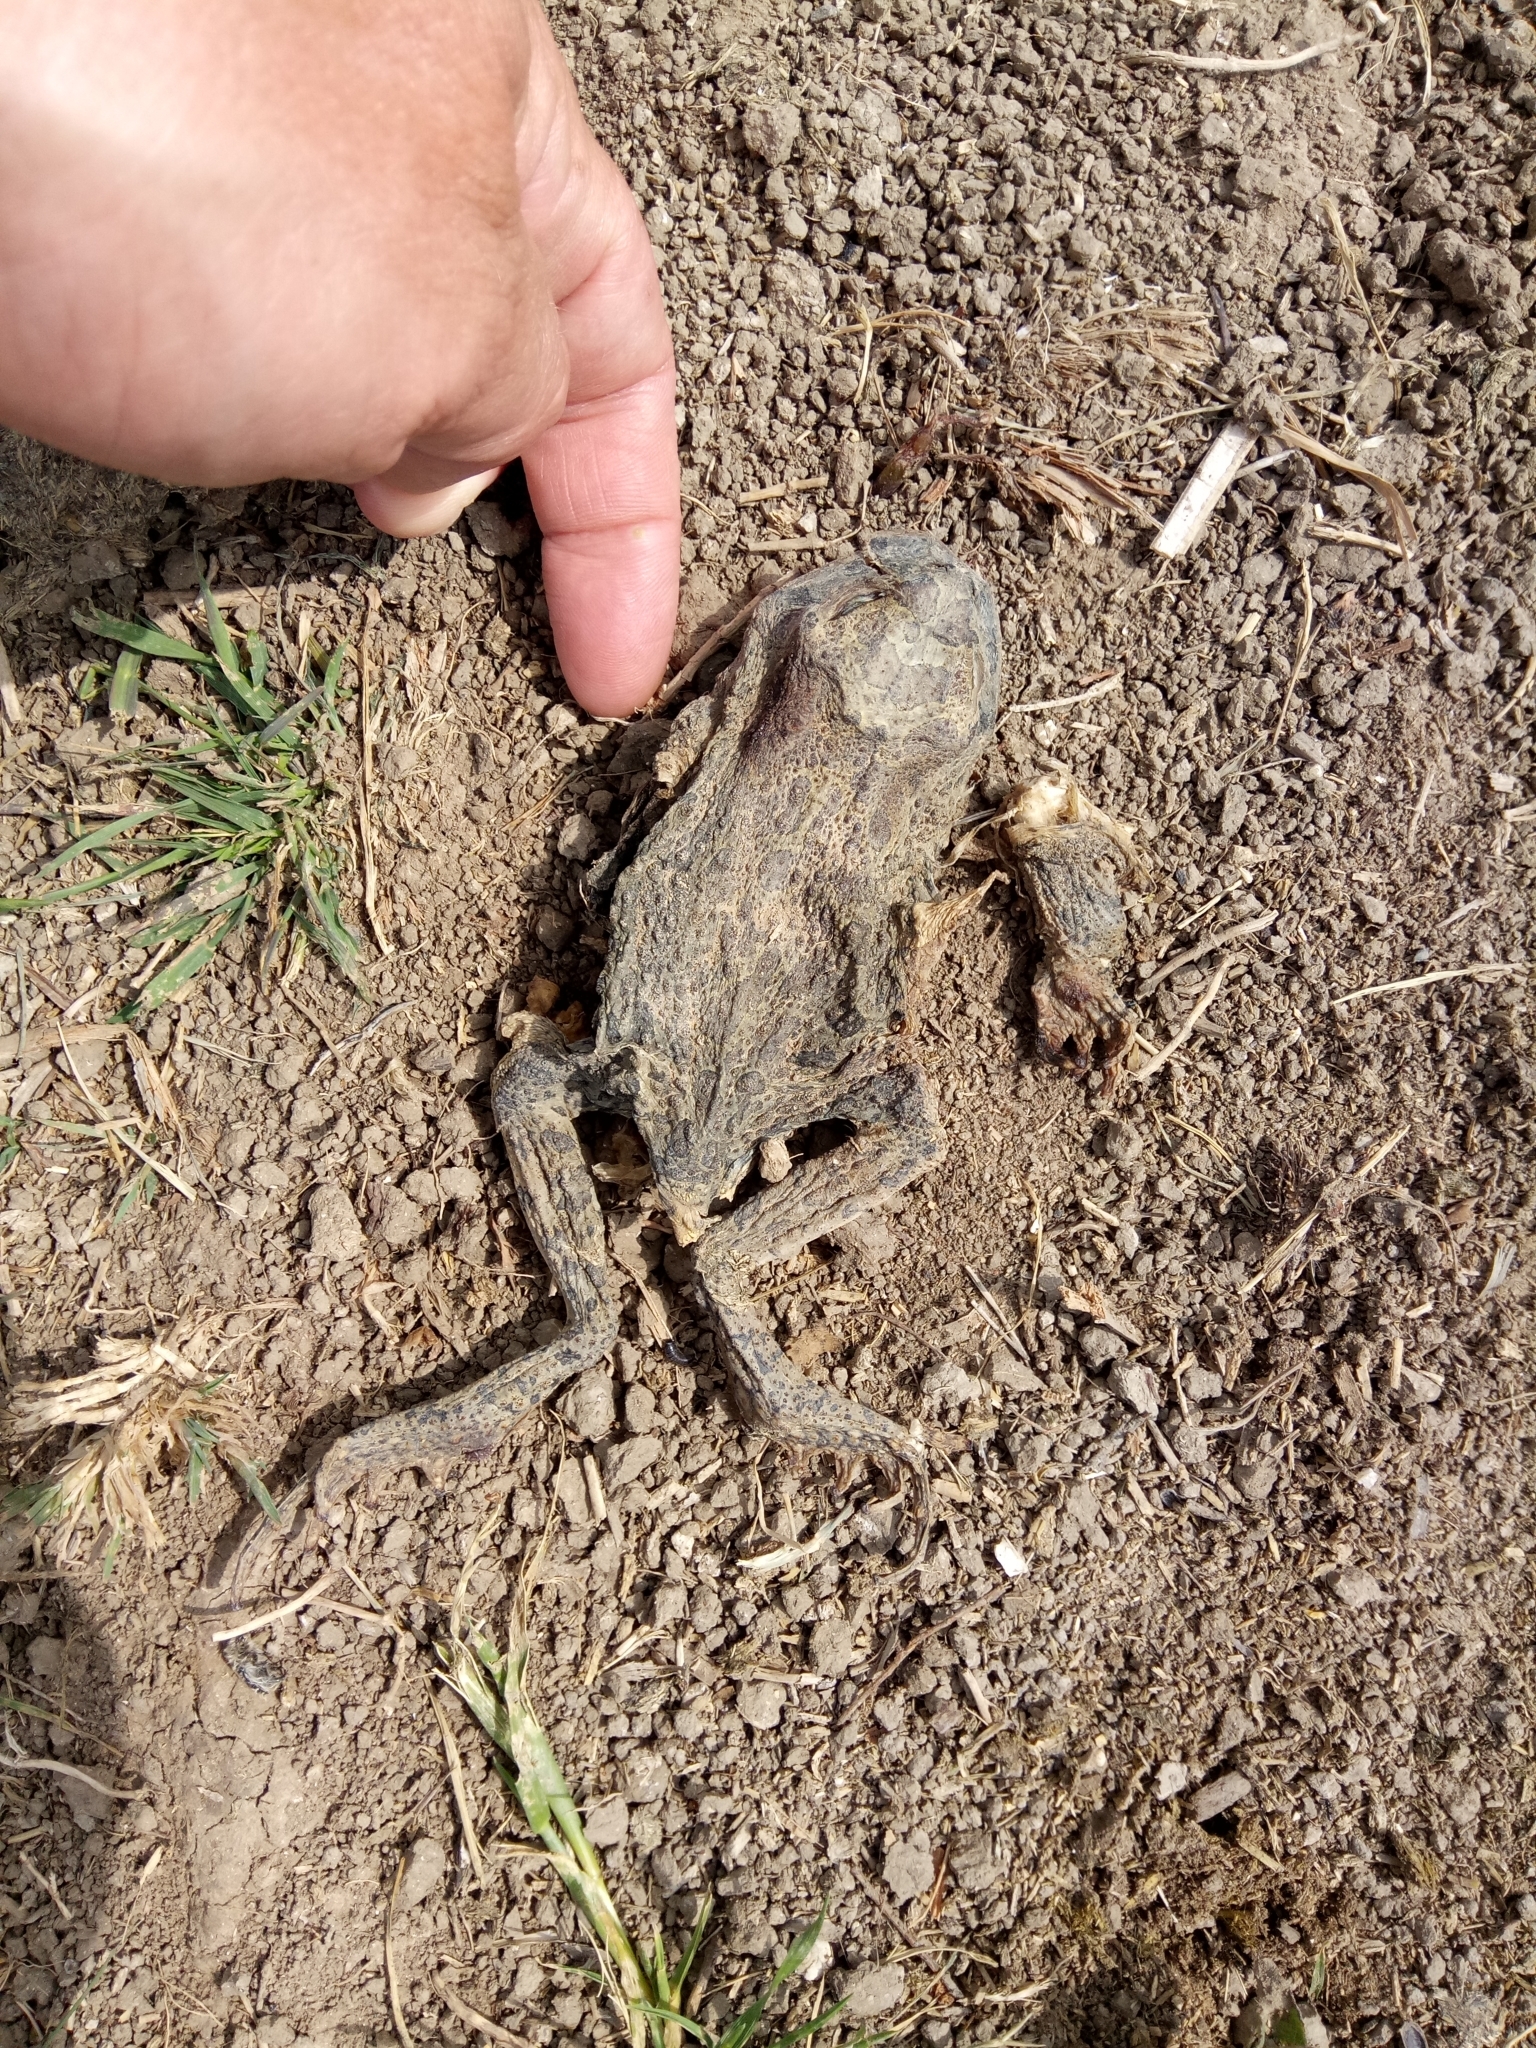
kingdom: Animalia
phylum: Chordata
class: Amphibia
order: Anura
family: Bufonidae
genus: Sclerophrys
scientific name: Sclerophrys mauritanica
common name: Berber toad
